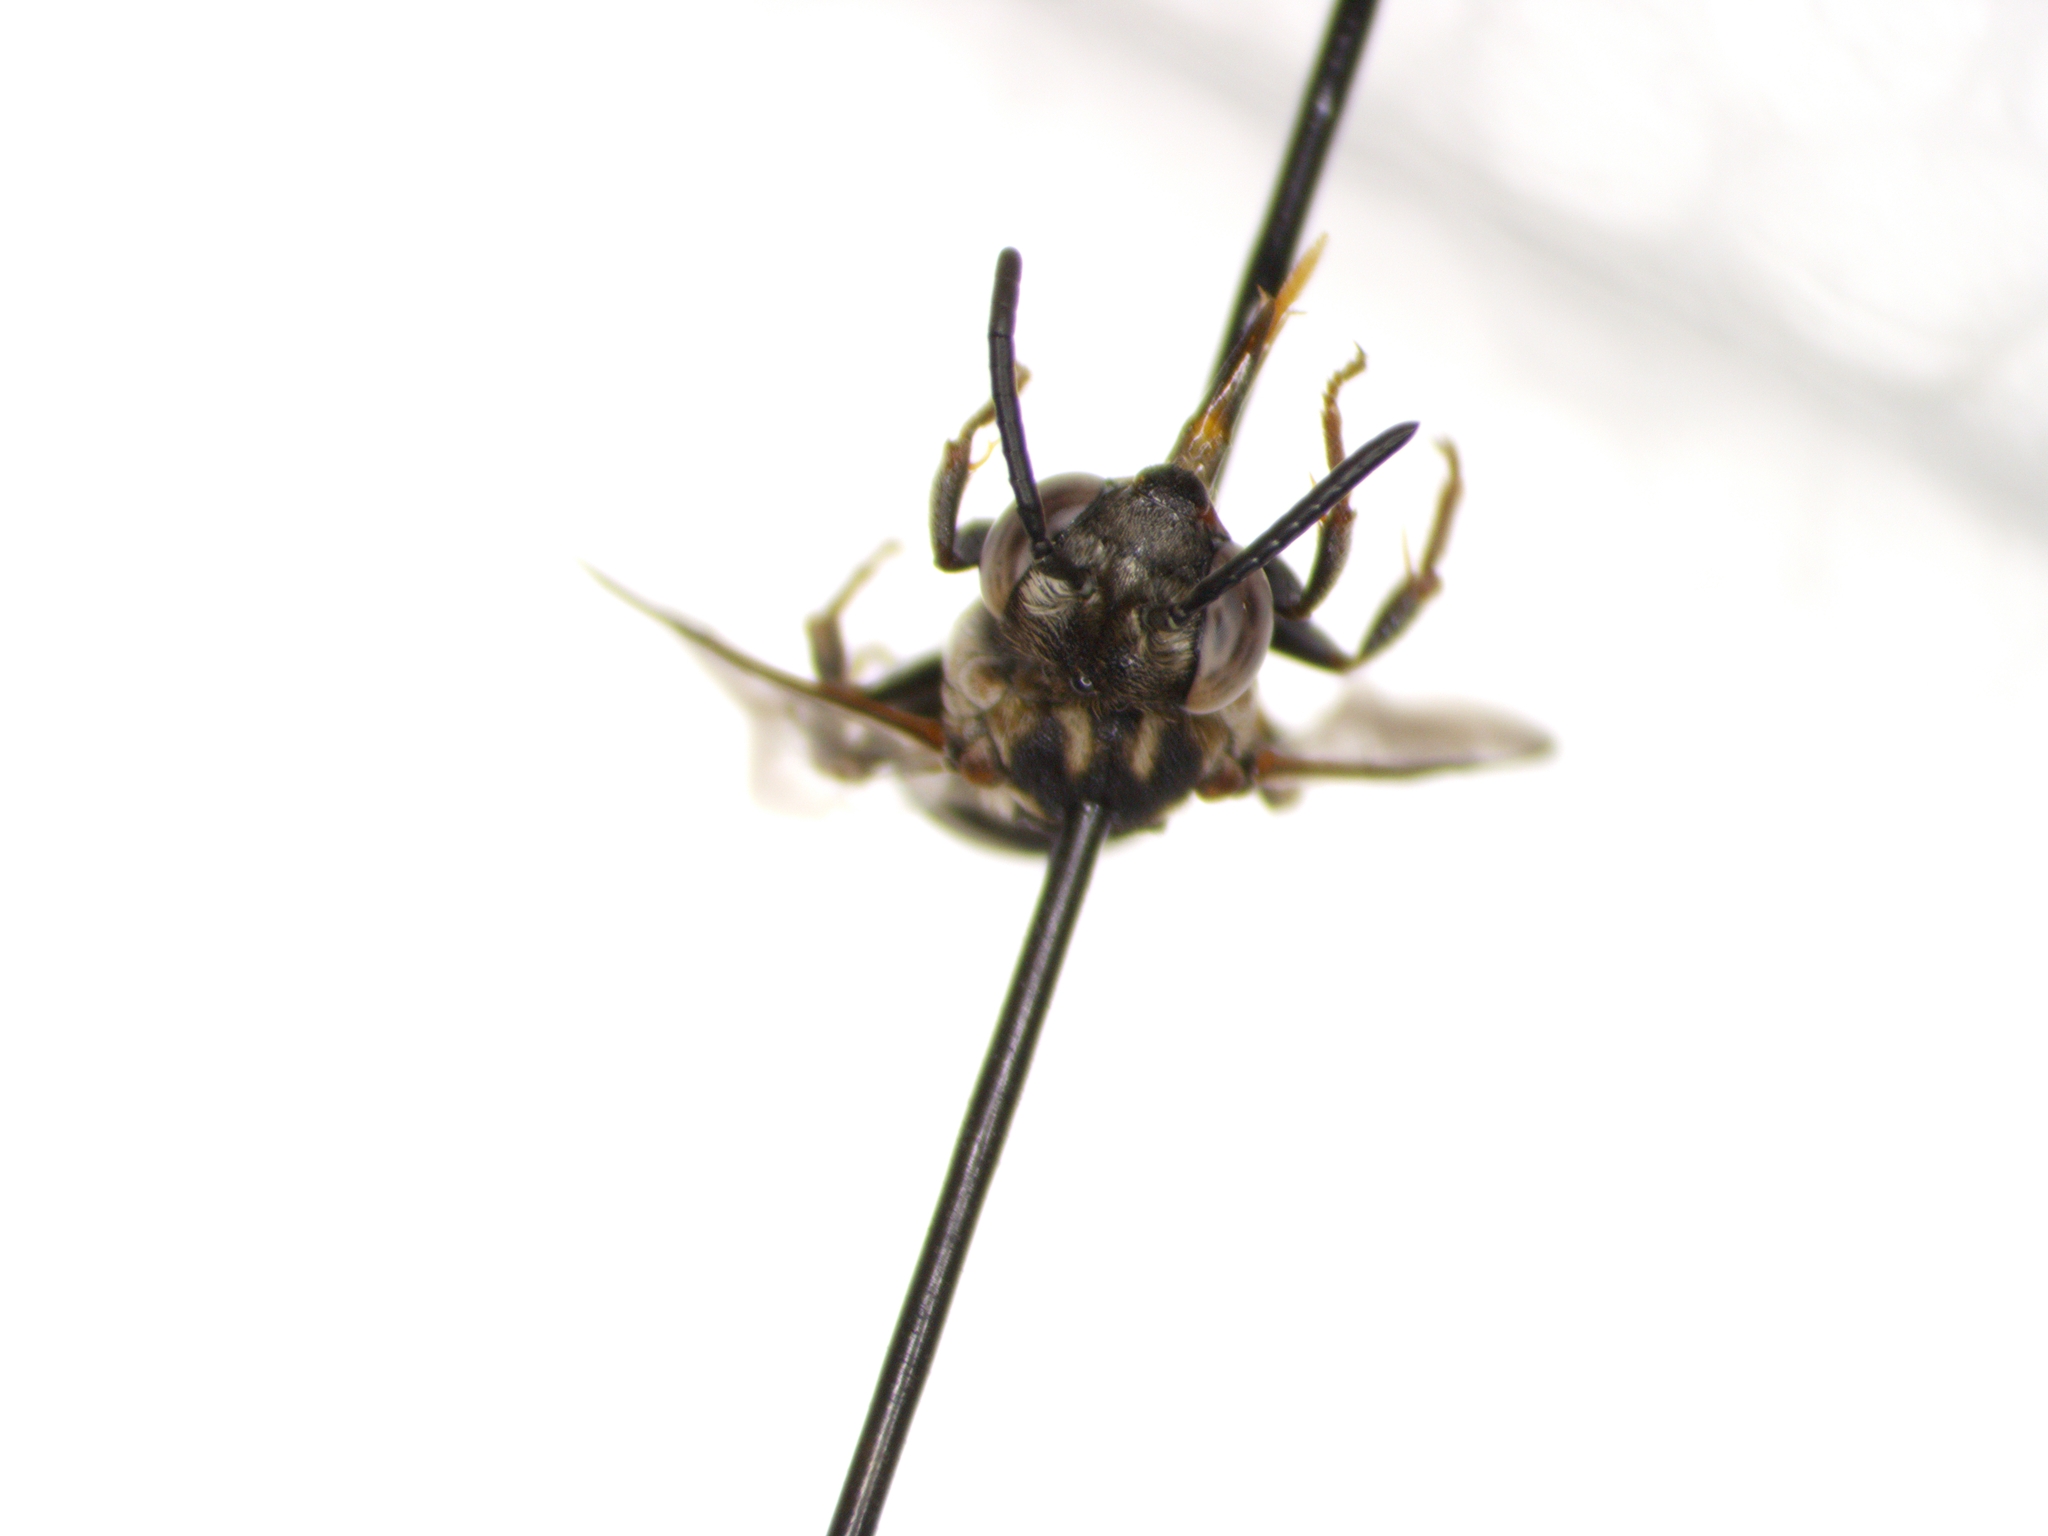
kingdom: Animalia
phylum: Arthropoda
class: Insecta
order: Hymenoptera
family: Apidae
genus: Epeolus
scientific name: Epeolus olympiellus
